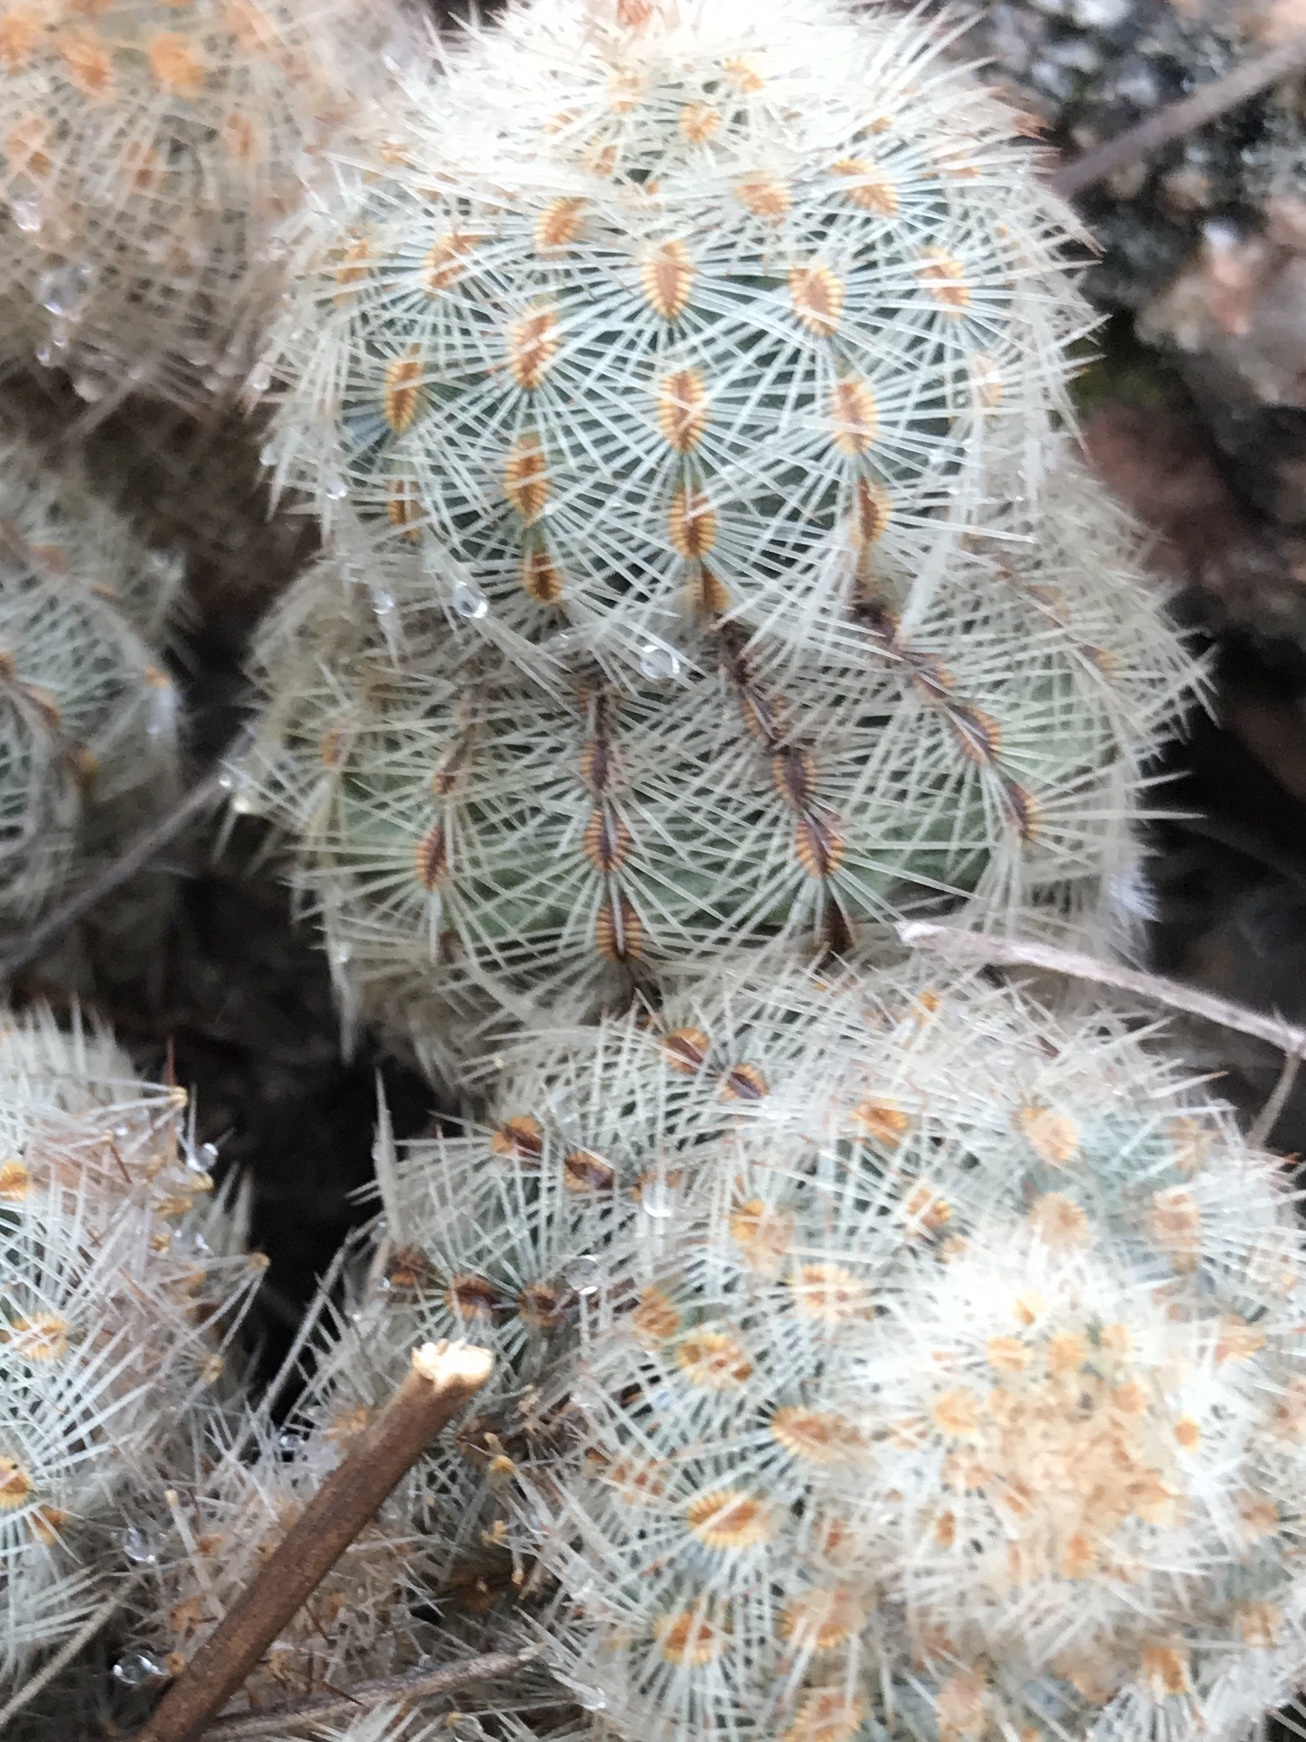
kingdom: Plantae
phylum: Tracheophyta
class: Magnoliopsida
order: Caryophyllales
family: Cactaceae
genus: Echinocereus
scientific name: Echinocereus reichenbachii
